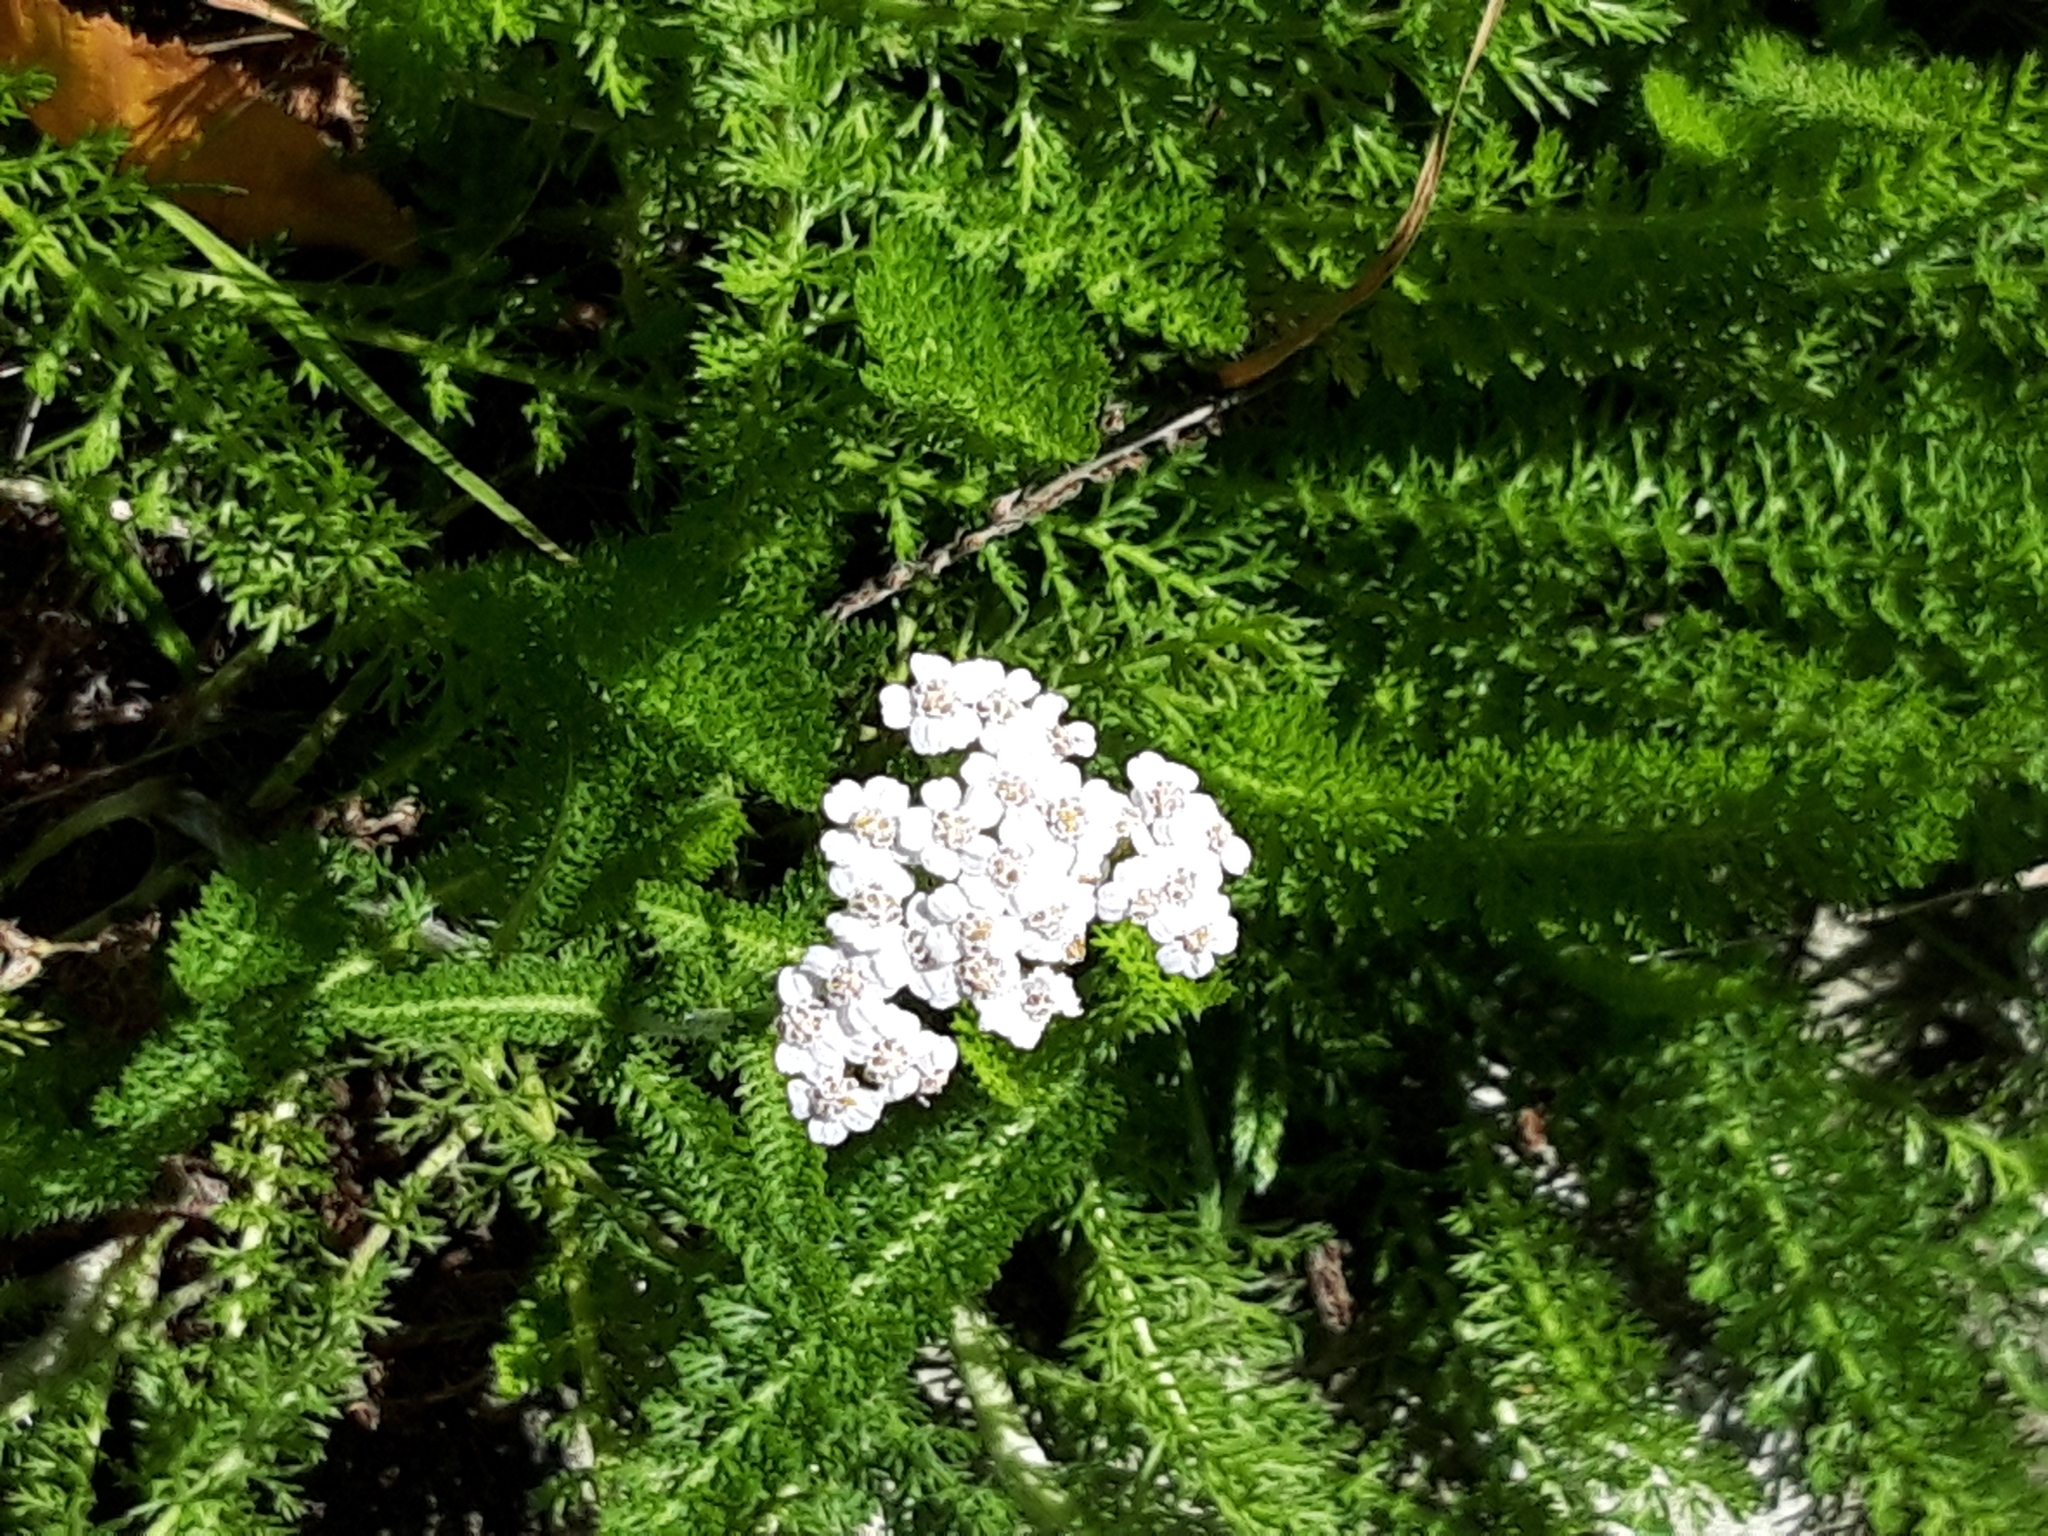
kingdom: Plantae
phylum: Tracheophyta
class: Magnoliopsida
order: Asterales
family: Asteraceae
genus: Achillea
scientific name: Achillea millefolium
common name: Yarrow
